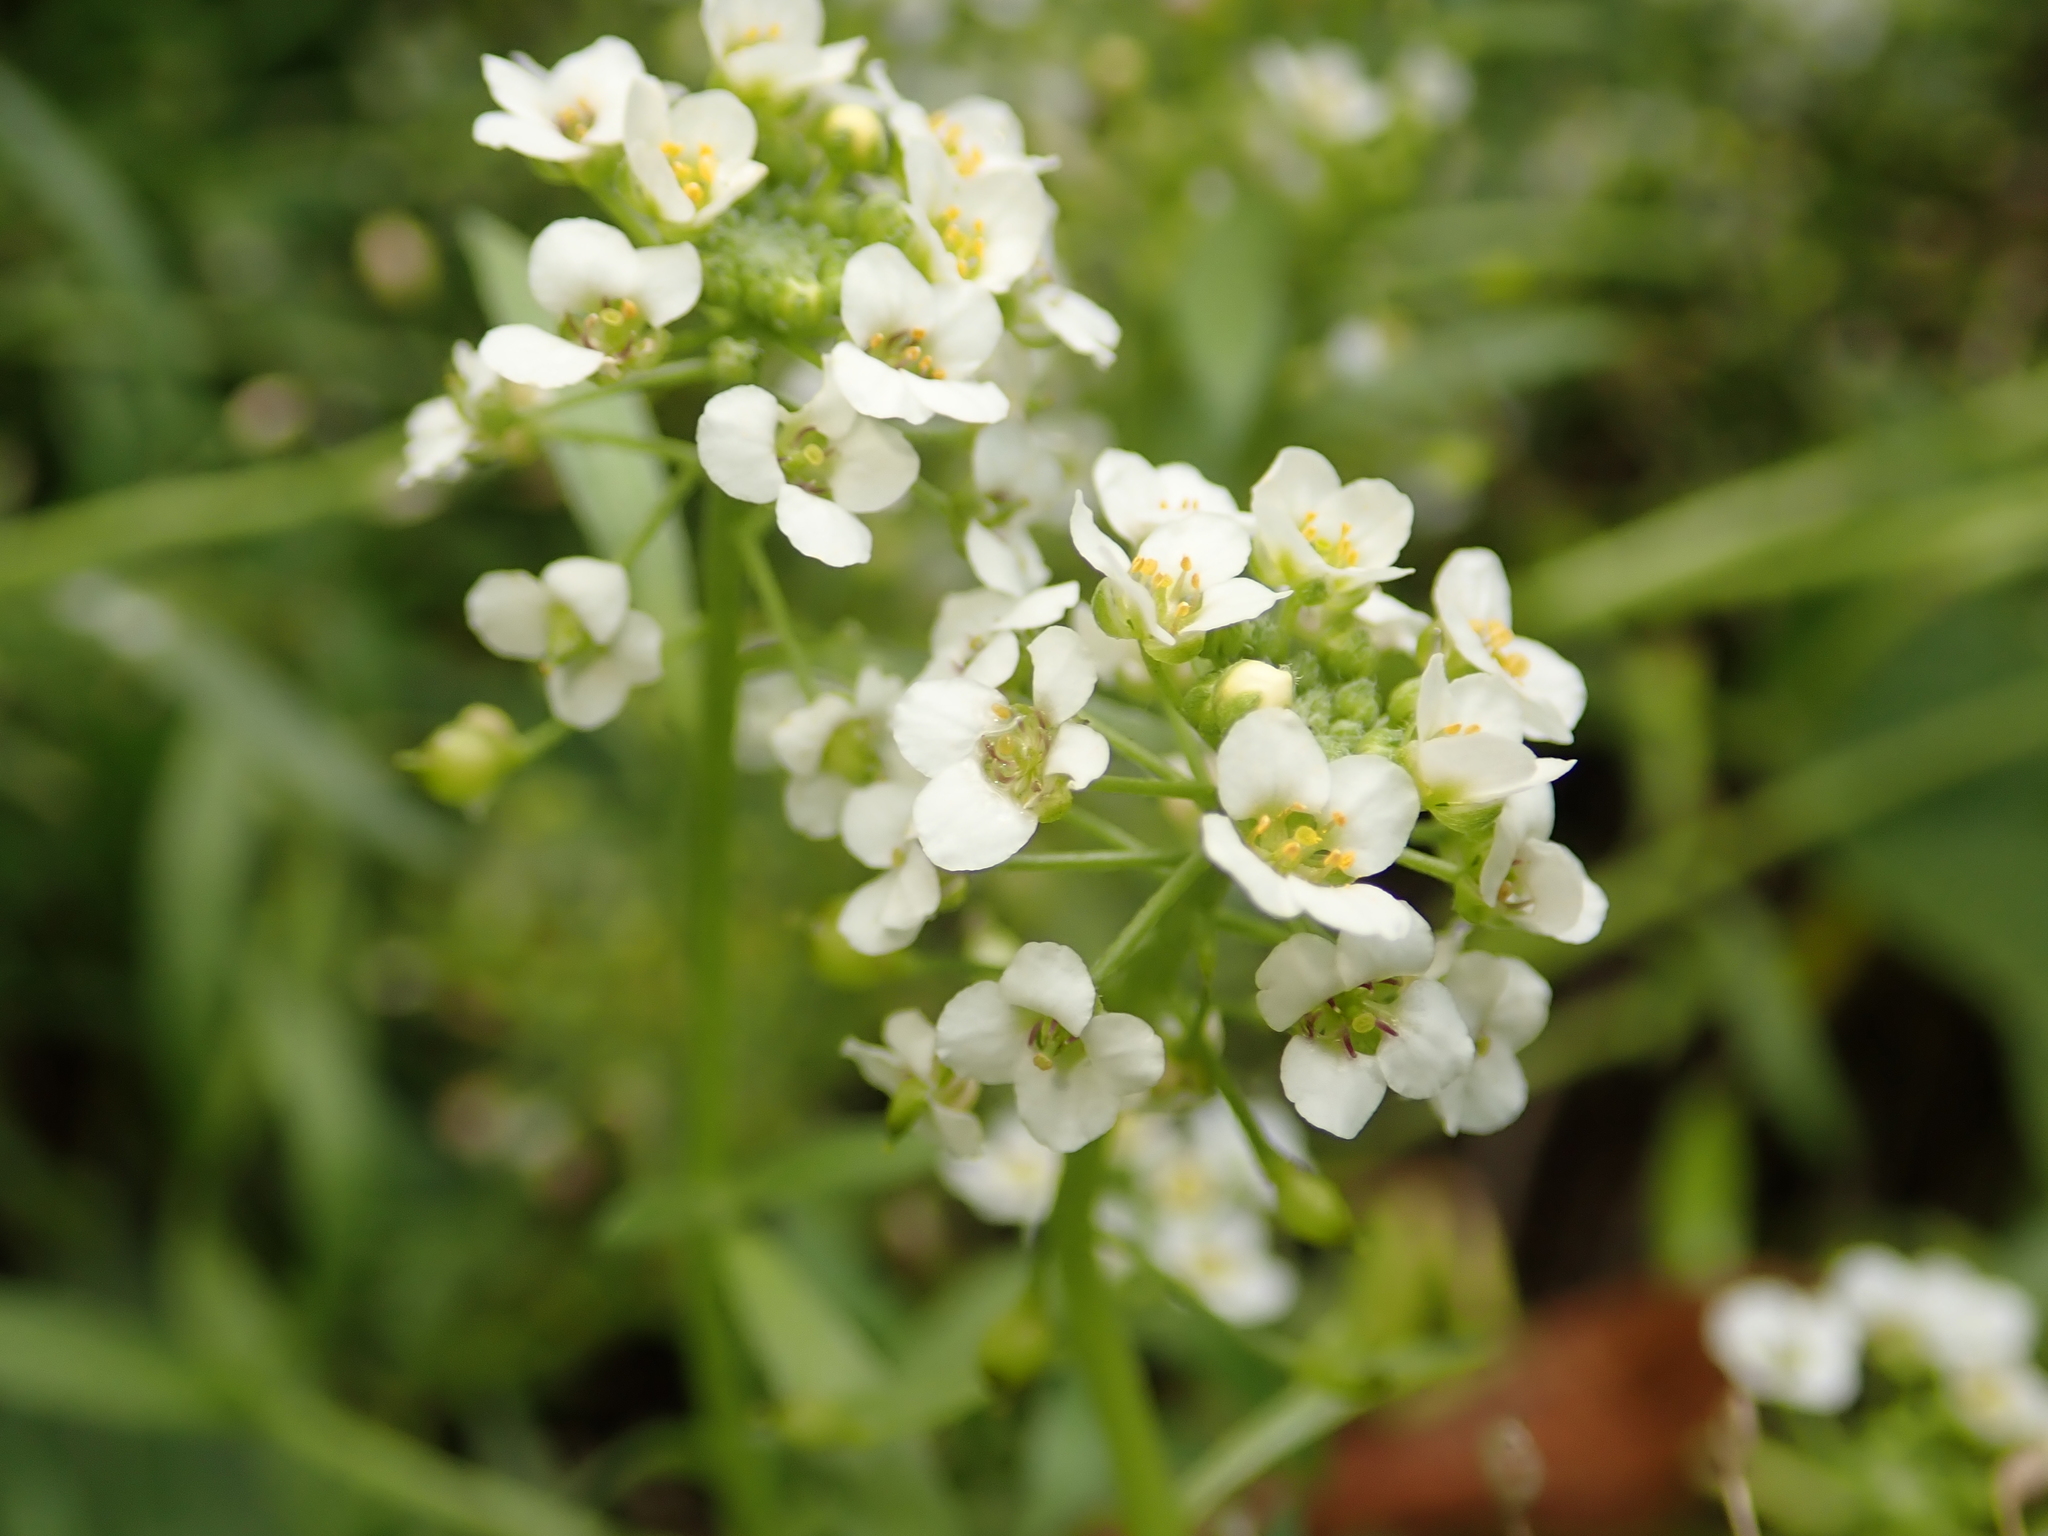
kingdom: Plantae
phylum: Tracheophyta
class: Magnoliopsida
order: Brassicales
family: Brassicaceae
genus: Lobularia
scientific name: Lobularia maritima
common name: Sweet alison
